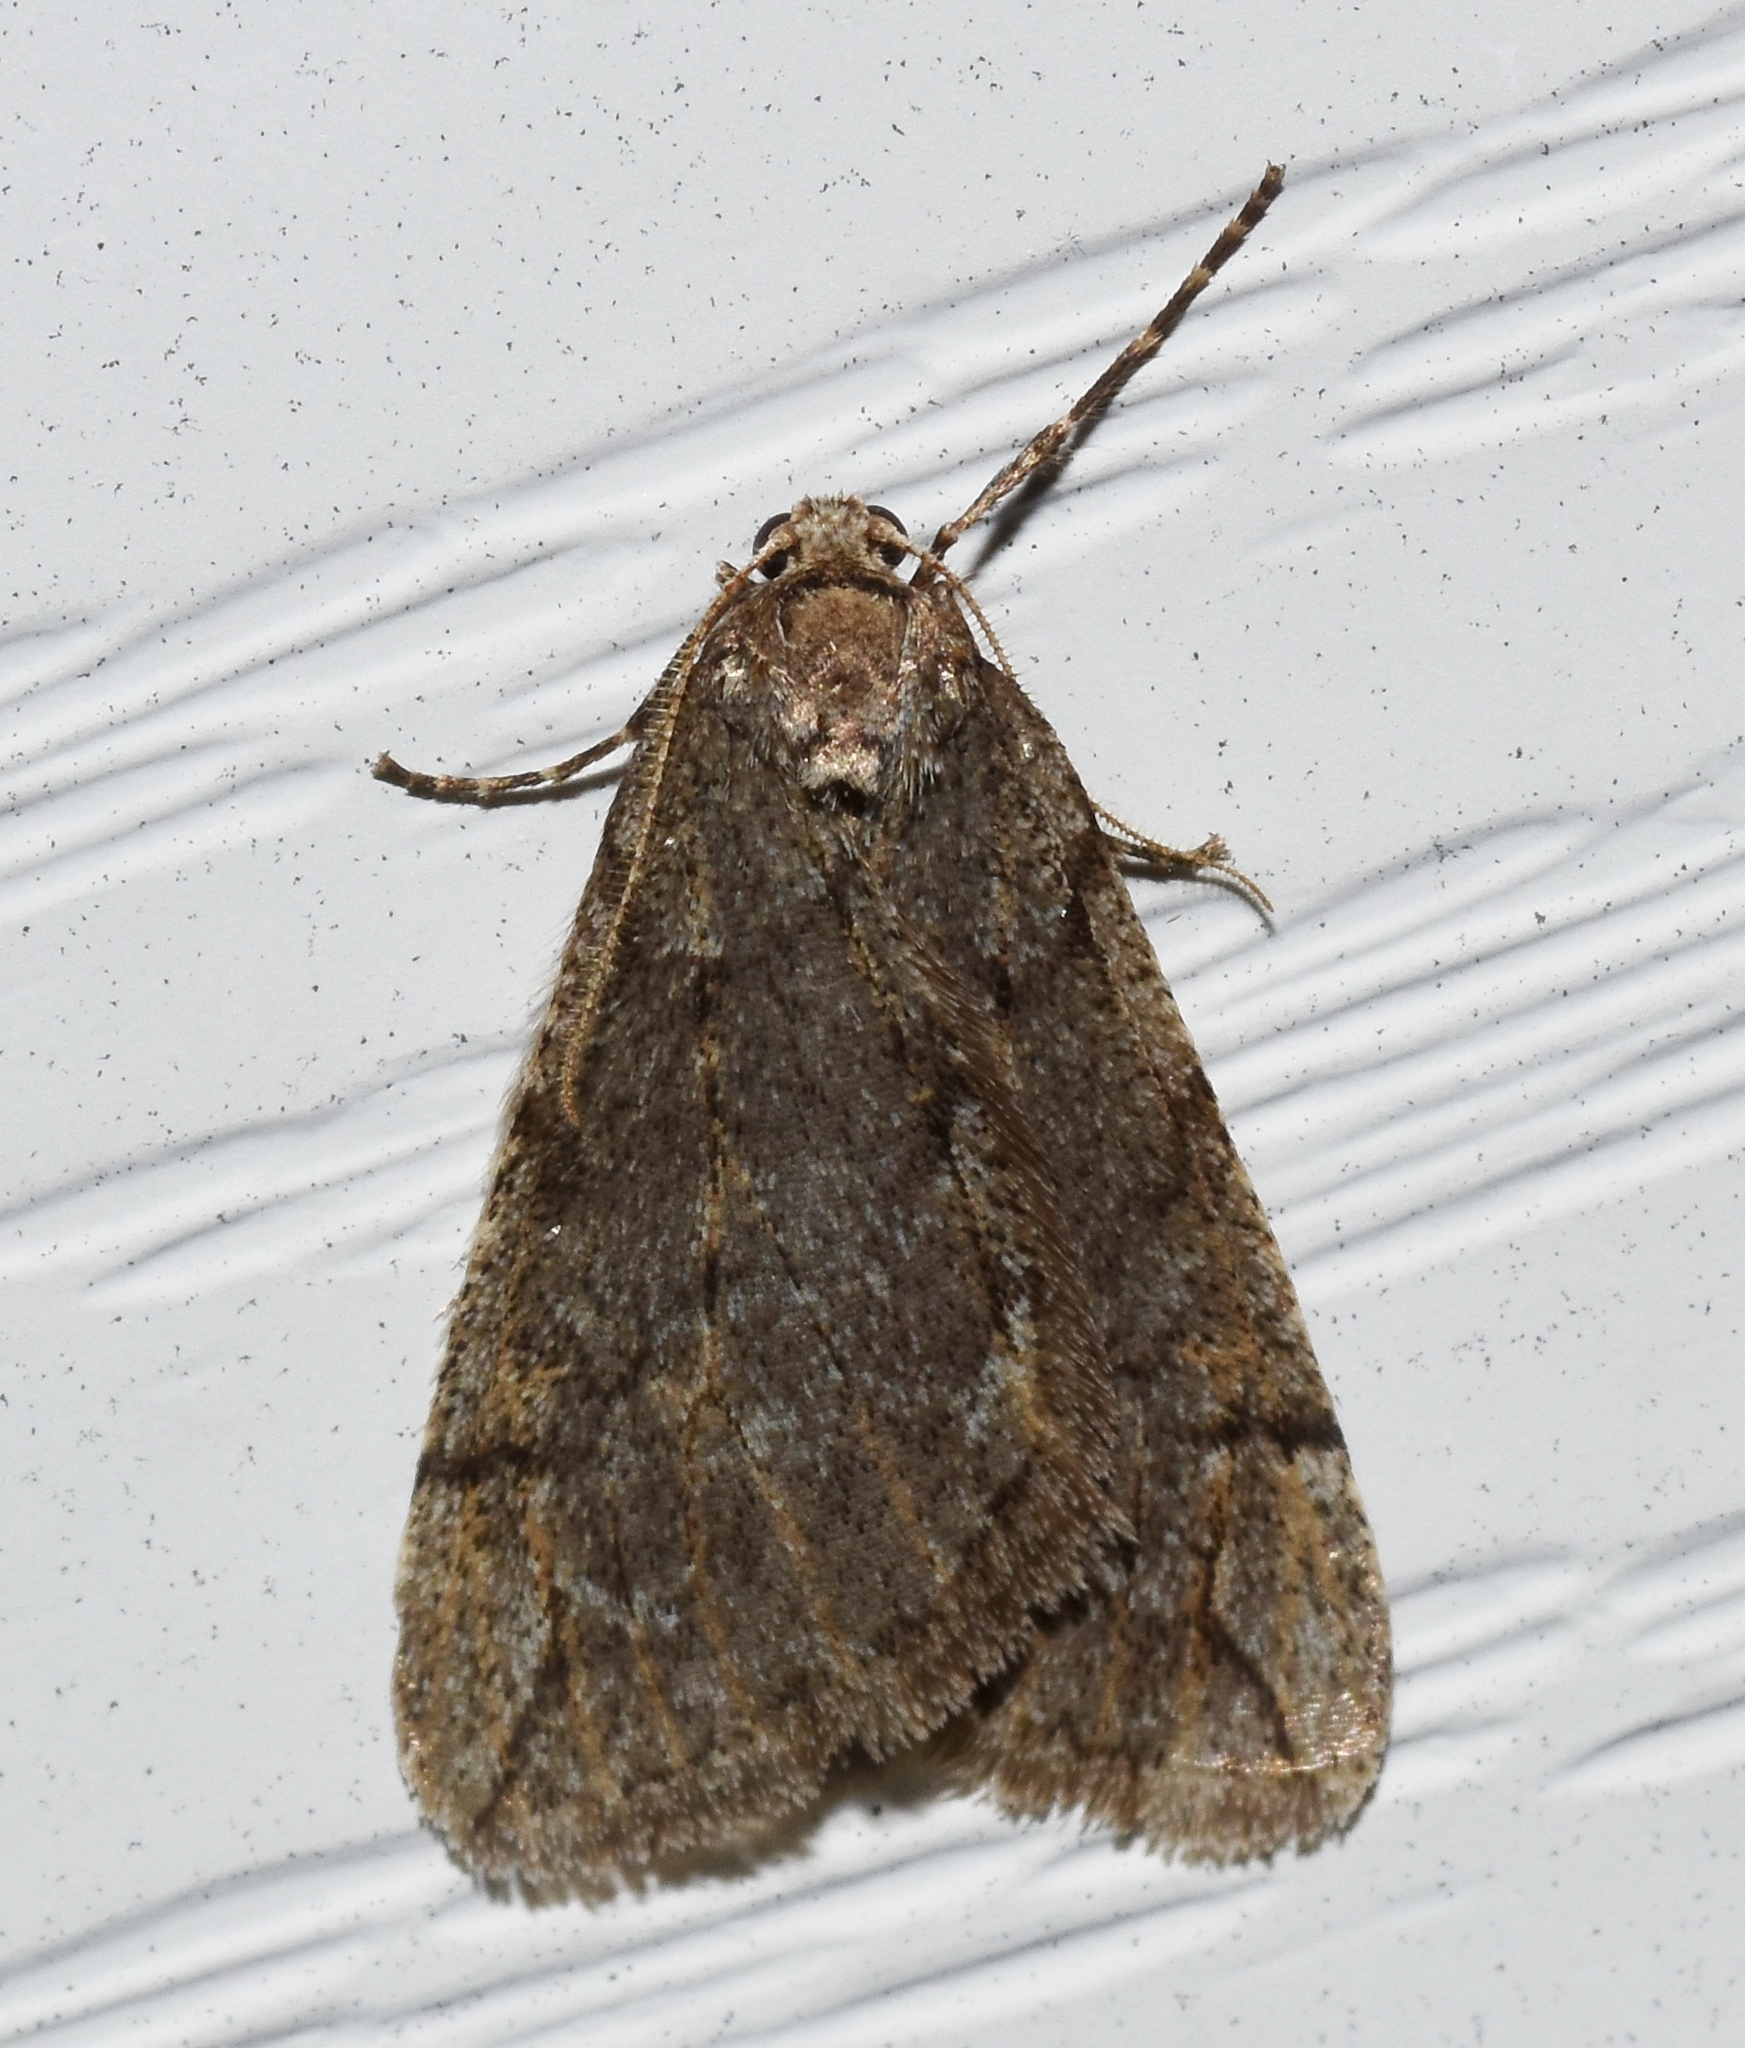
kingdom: Animalia
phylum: Arthropoda
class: Insecta
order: Lepidoptera
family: Geometridae
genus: Paleacrita
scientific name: Paleacrita vernata
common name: Spring cankerworm
